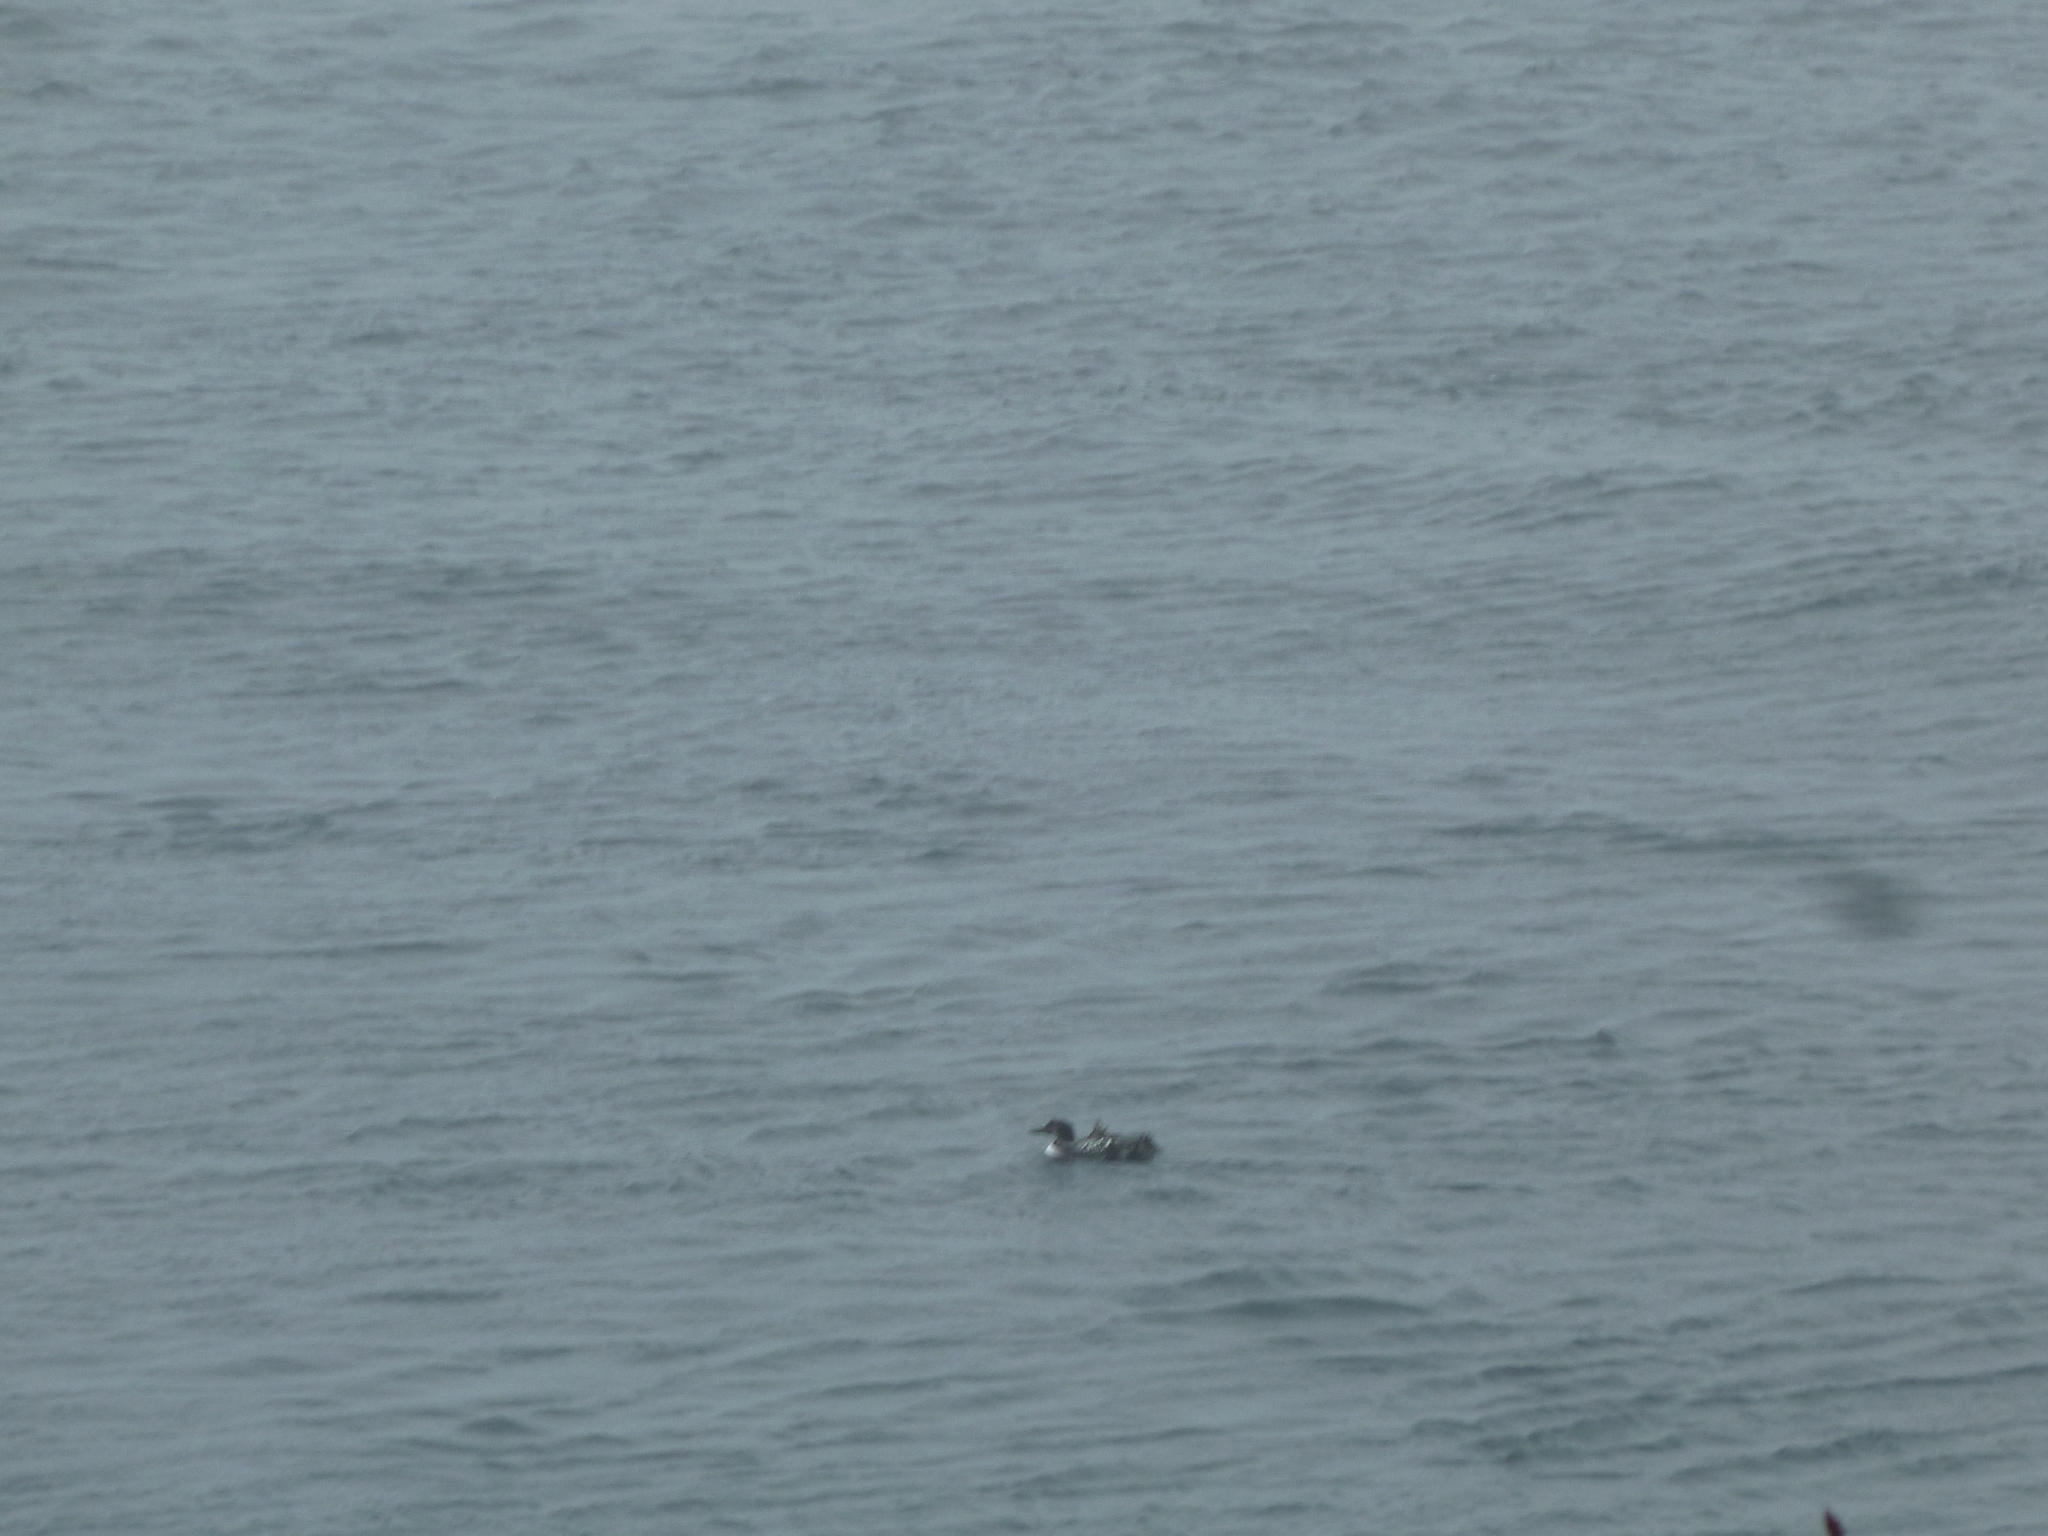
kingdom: Animalia
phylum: Chordata
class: Aves
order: Gaviiformes
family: Gaviidae
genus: Gavia
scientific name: Gavia immer
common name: Common loon
